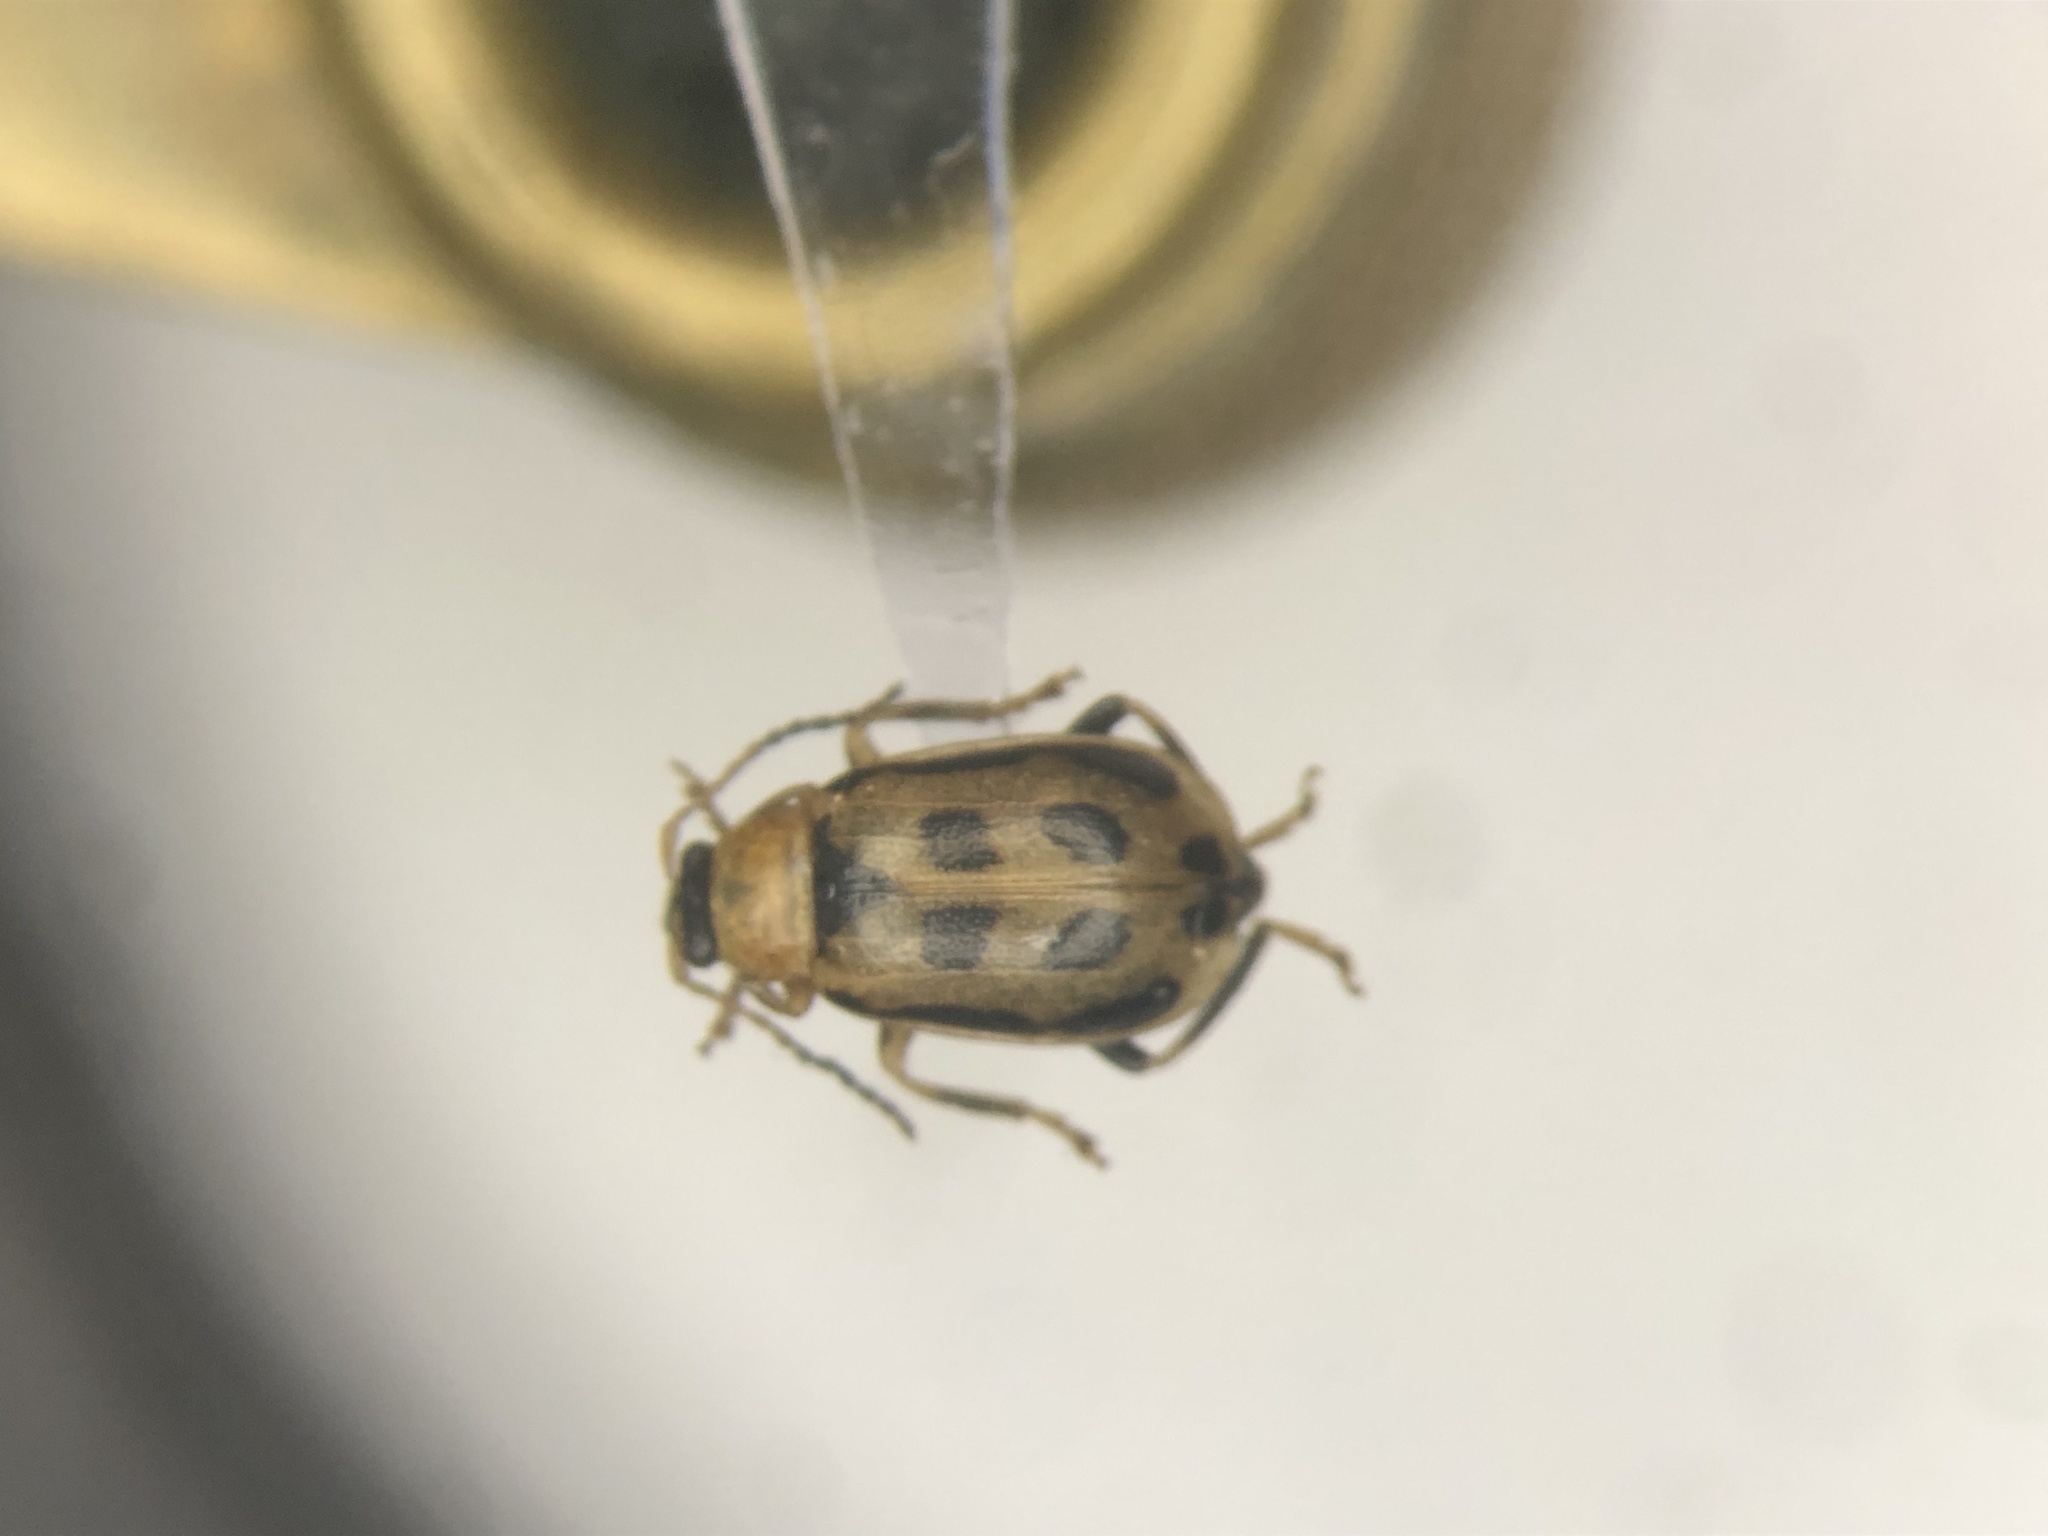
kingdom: Animalia
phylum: Arthropoda
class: Insecta
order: Coleoptera
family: Chrysomelidae
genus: Cerotoma
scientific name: Cerotoma trifurcata
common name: Bean leaf beetle
